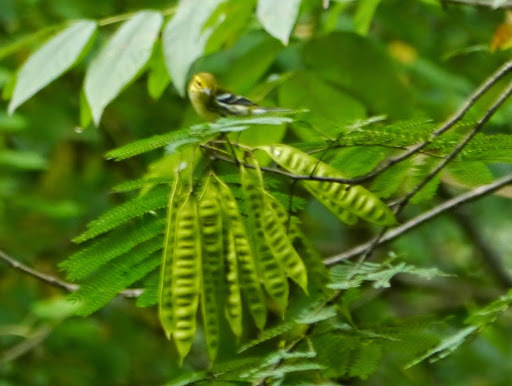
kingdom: Animalia
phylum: Chordata
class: Aves
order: Passeriformes
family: Parulidae
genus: Setophaga
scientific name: Setophaga virens
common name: Black-throated green warbler
